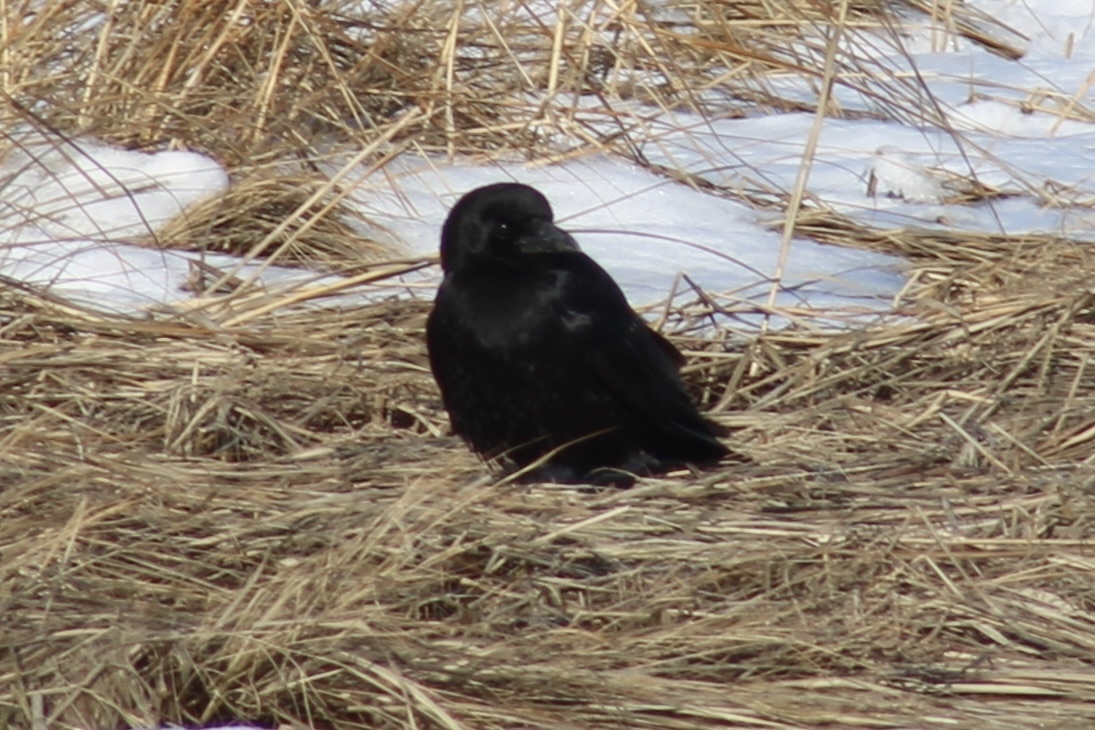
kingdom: Animalia
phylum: Chordata
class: Aves
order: Passeriformes
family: Corvidae
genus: Corvus
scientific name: Corvus brachyrhynchos
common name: American crow
